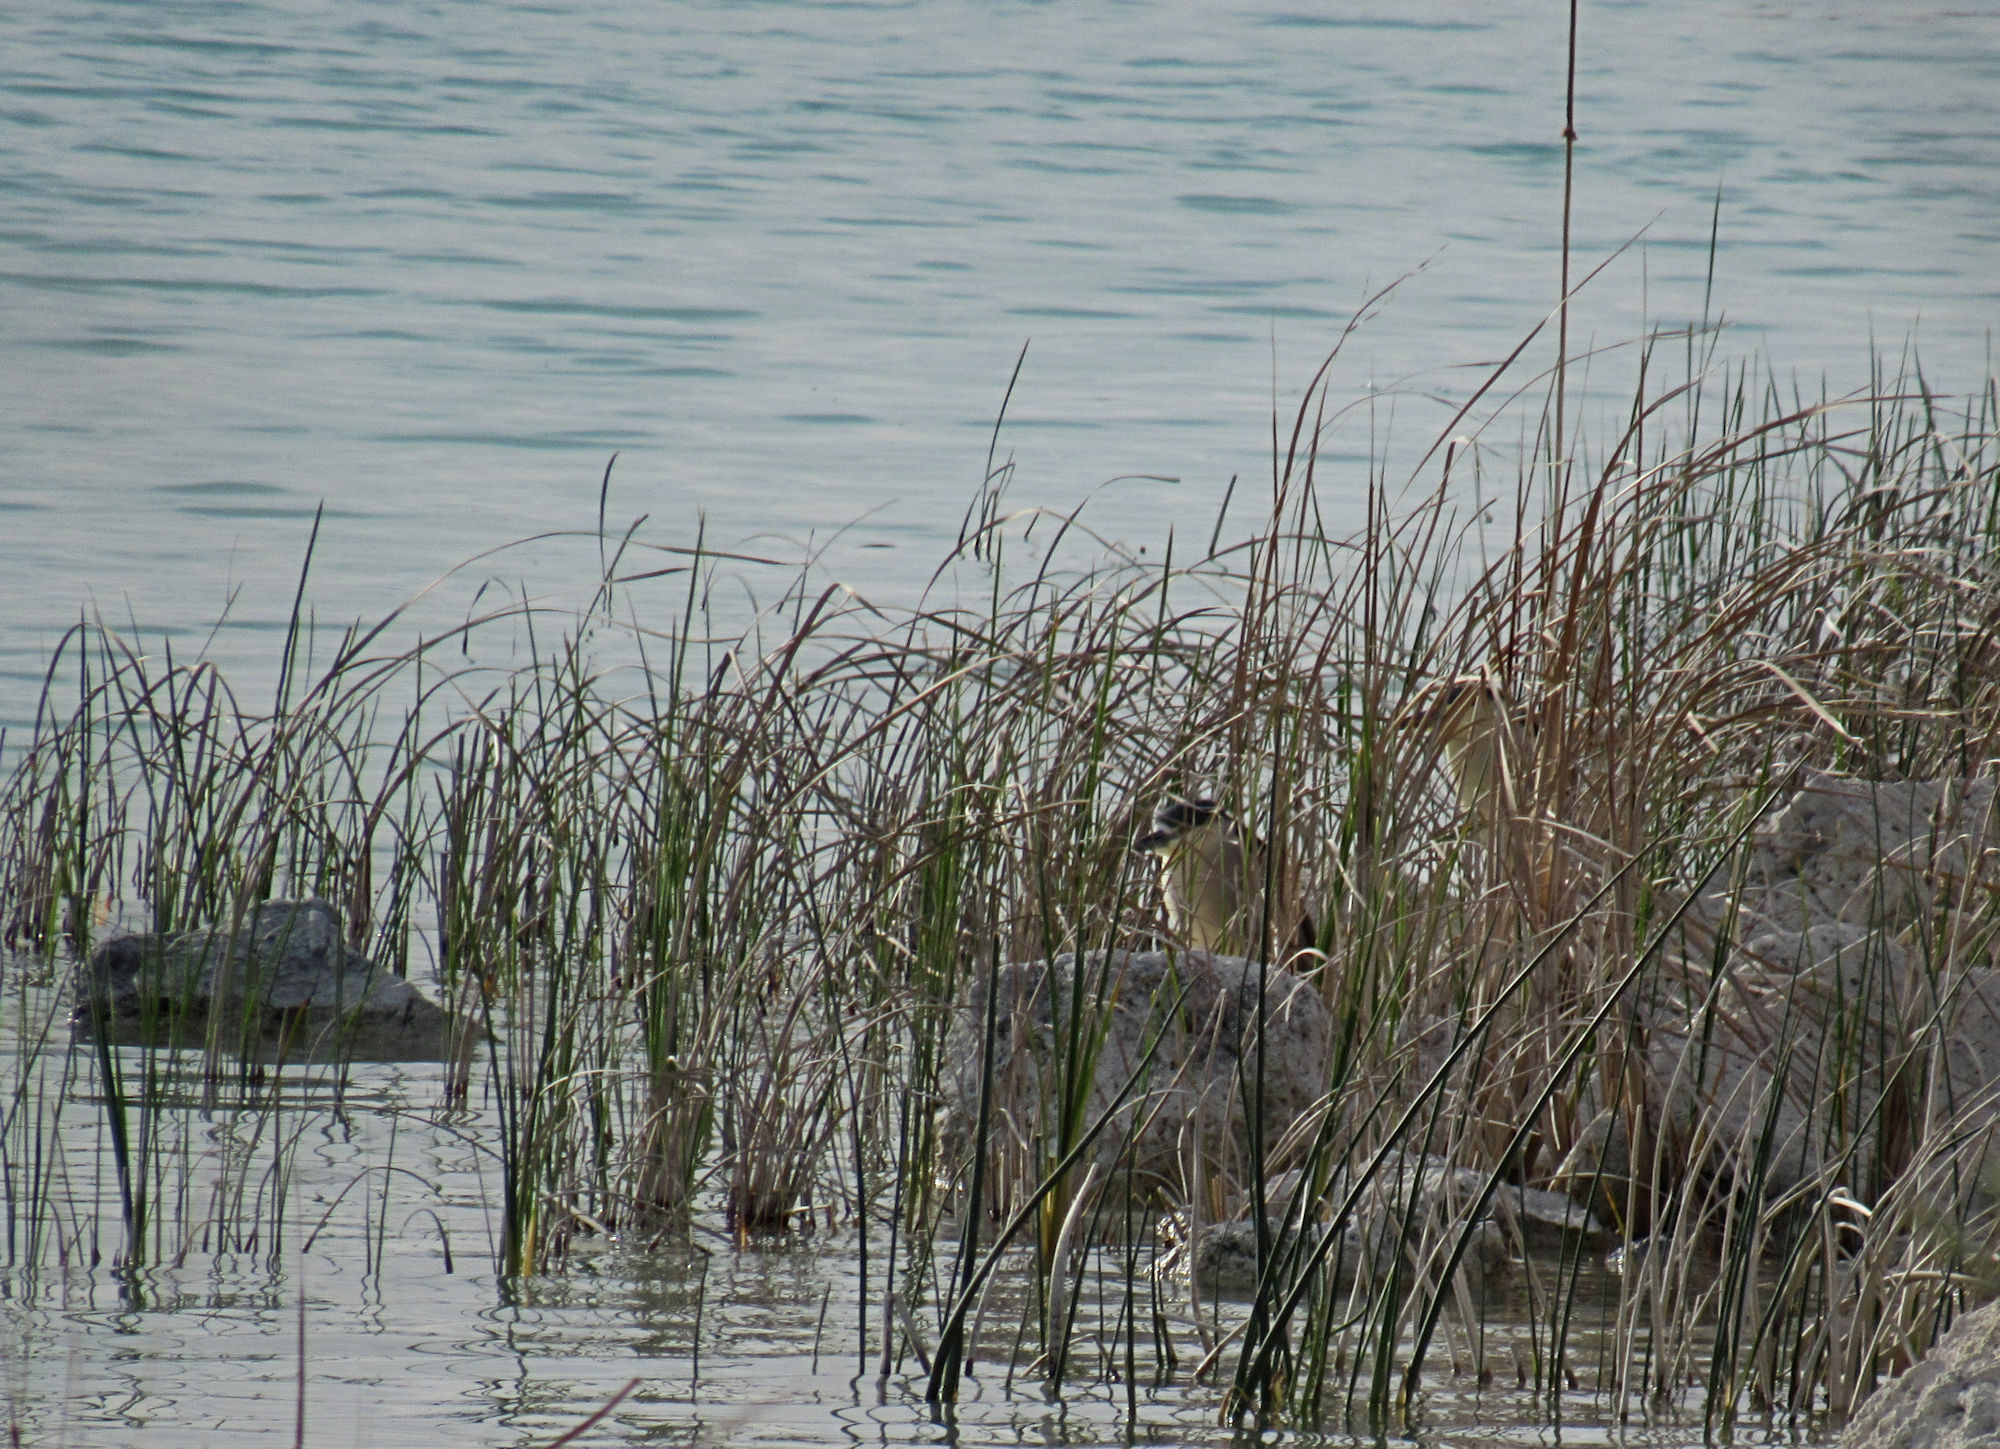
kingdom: Animalia
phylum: Chordata
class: Aves
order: Pelecaniformes
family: Ardeidae
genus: Nycticorax
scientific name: Nycticorax nycticorax
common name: Black-crowned night heron
